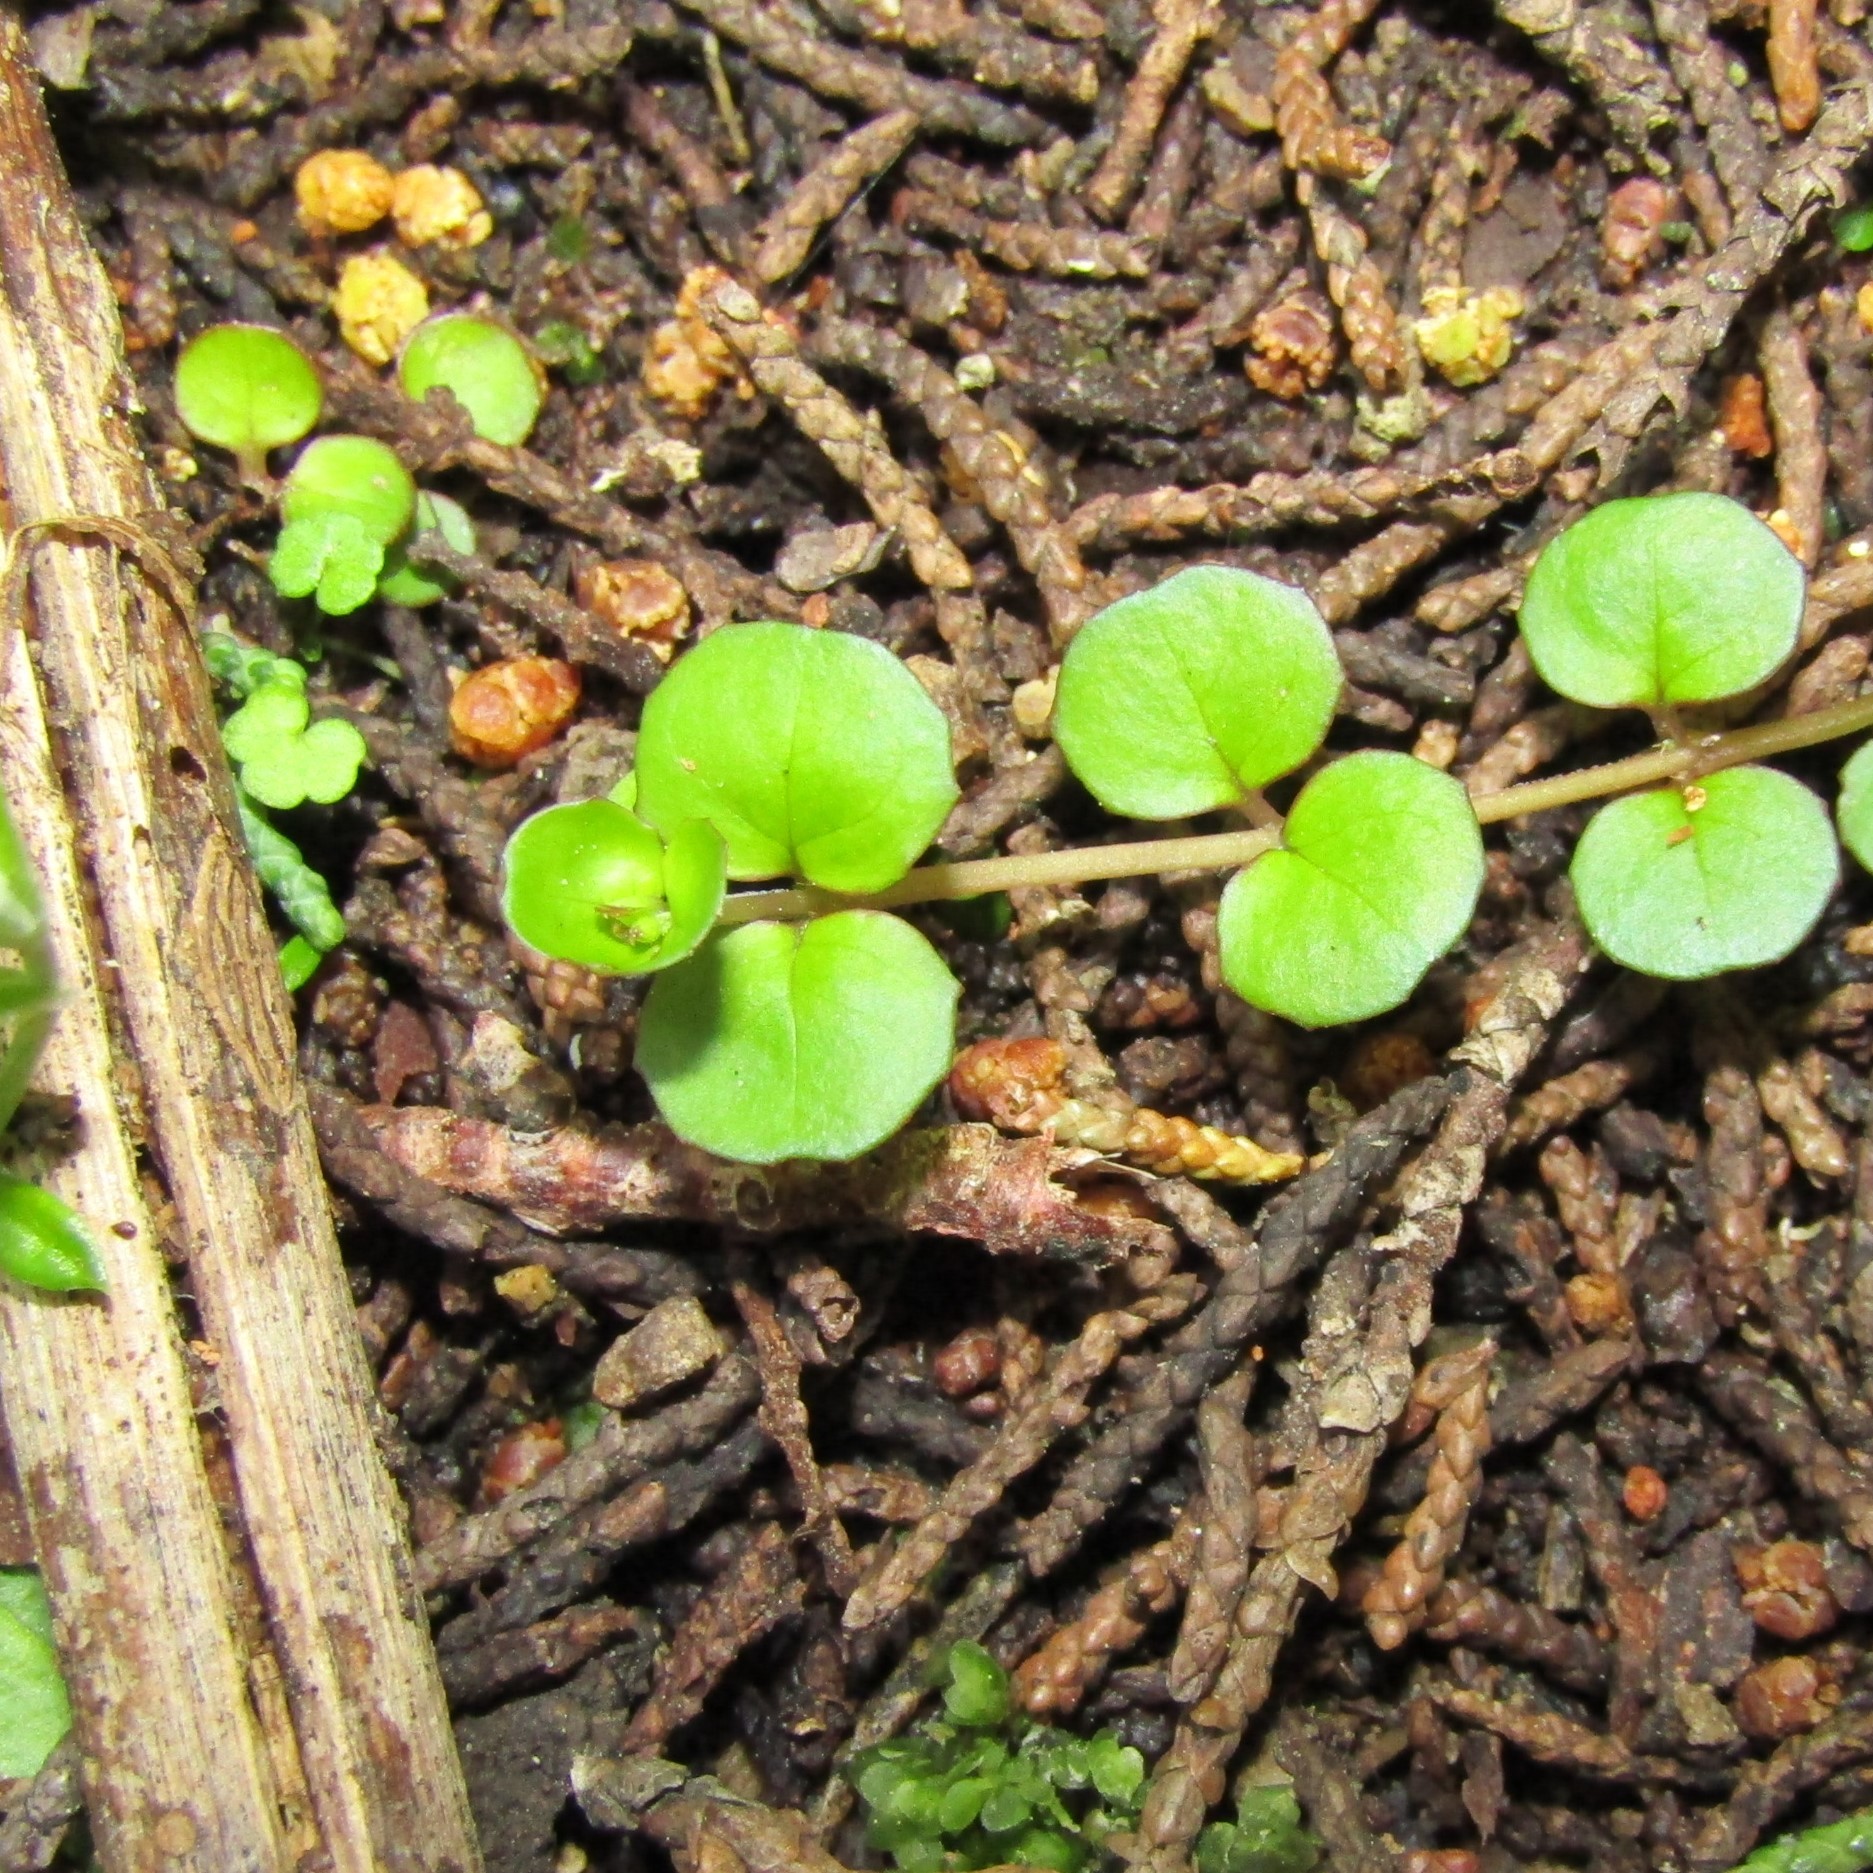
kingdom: Plantae
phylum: Tracheophyta
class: Magnoliopsida
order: Myrtales
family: Onagraceae
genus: Epilobium
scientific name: Epilobium nummularifolium
